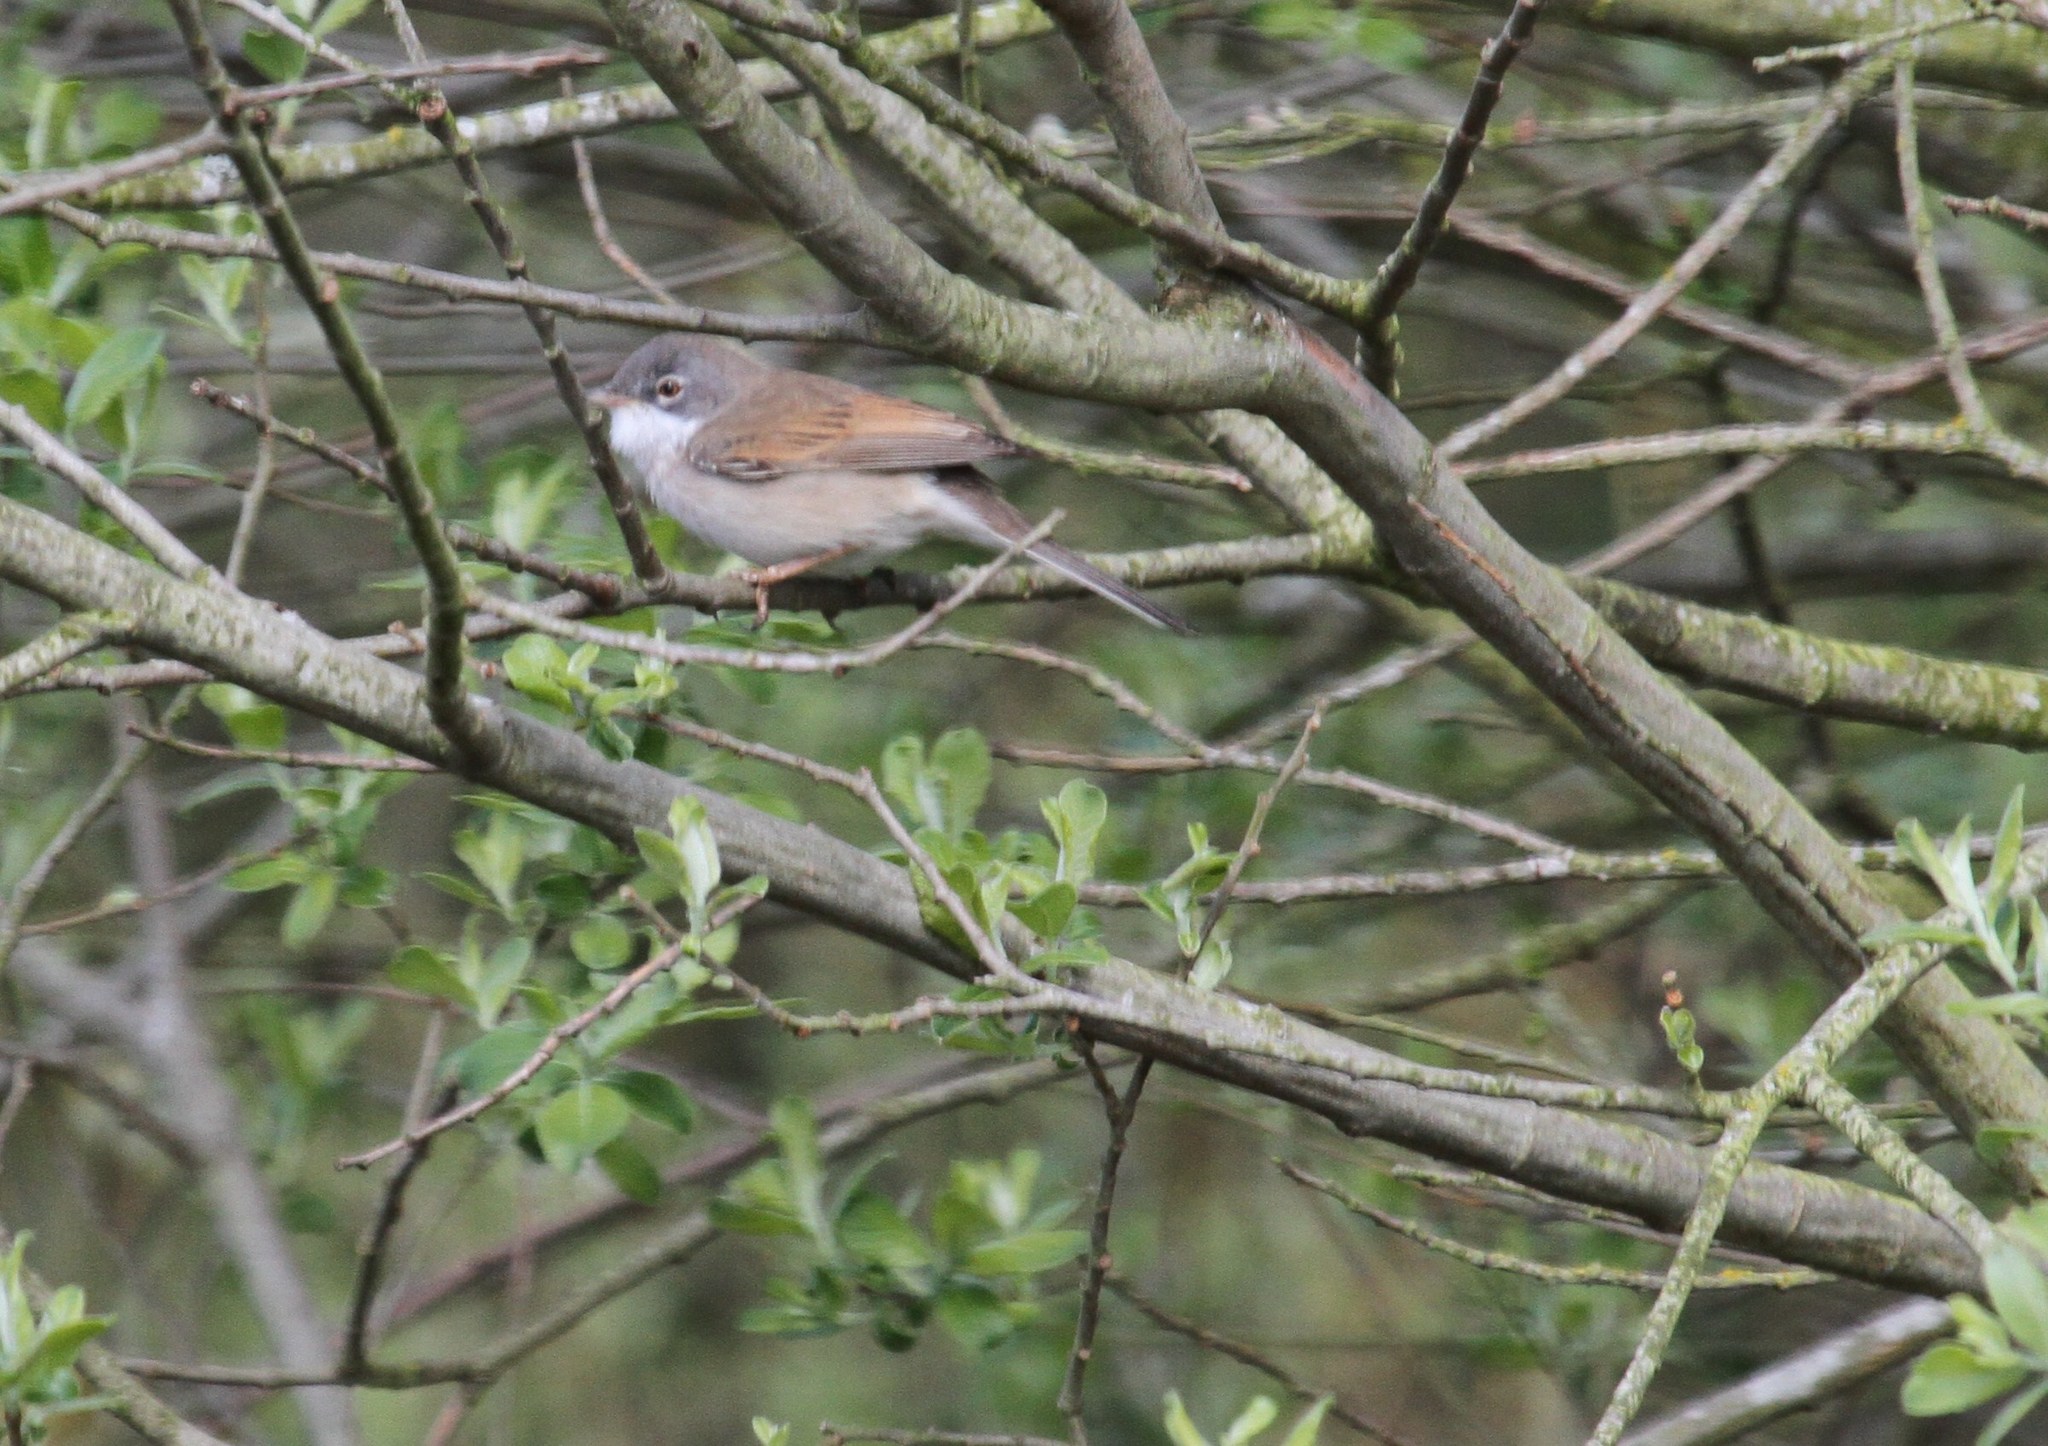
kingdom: Animalia
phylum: Chordata
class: Aves
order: Passeriformes
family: Sylviidae
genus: Sylvia
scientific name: Sylvia communis
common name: Common whitethroat
